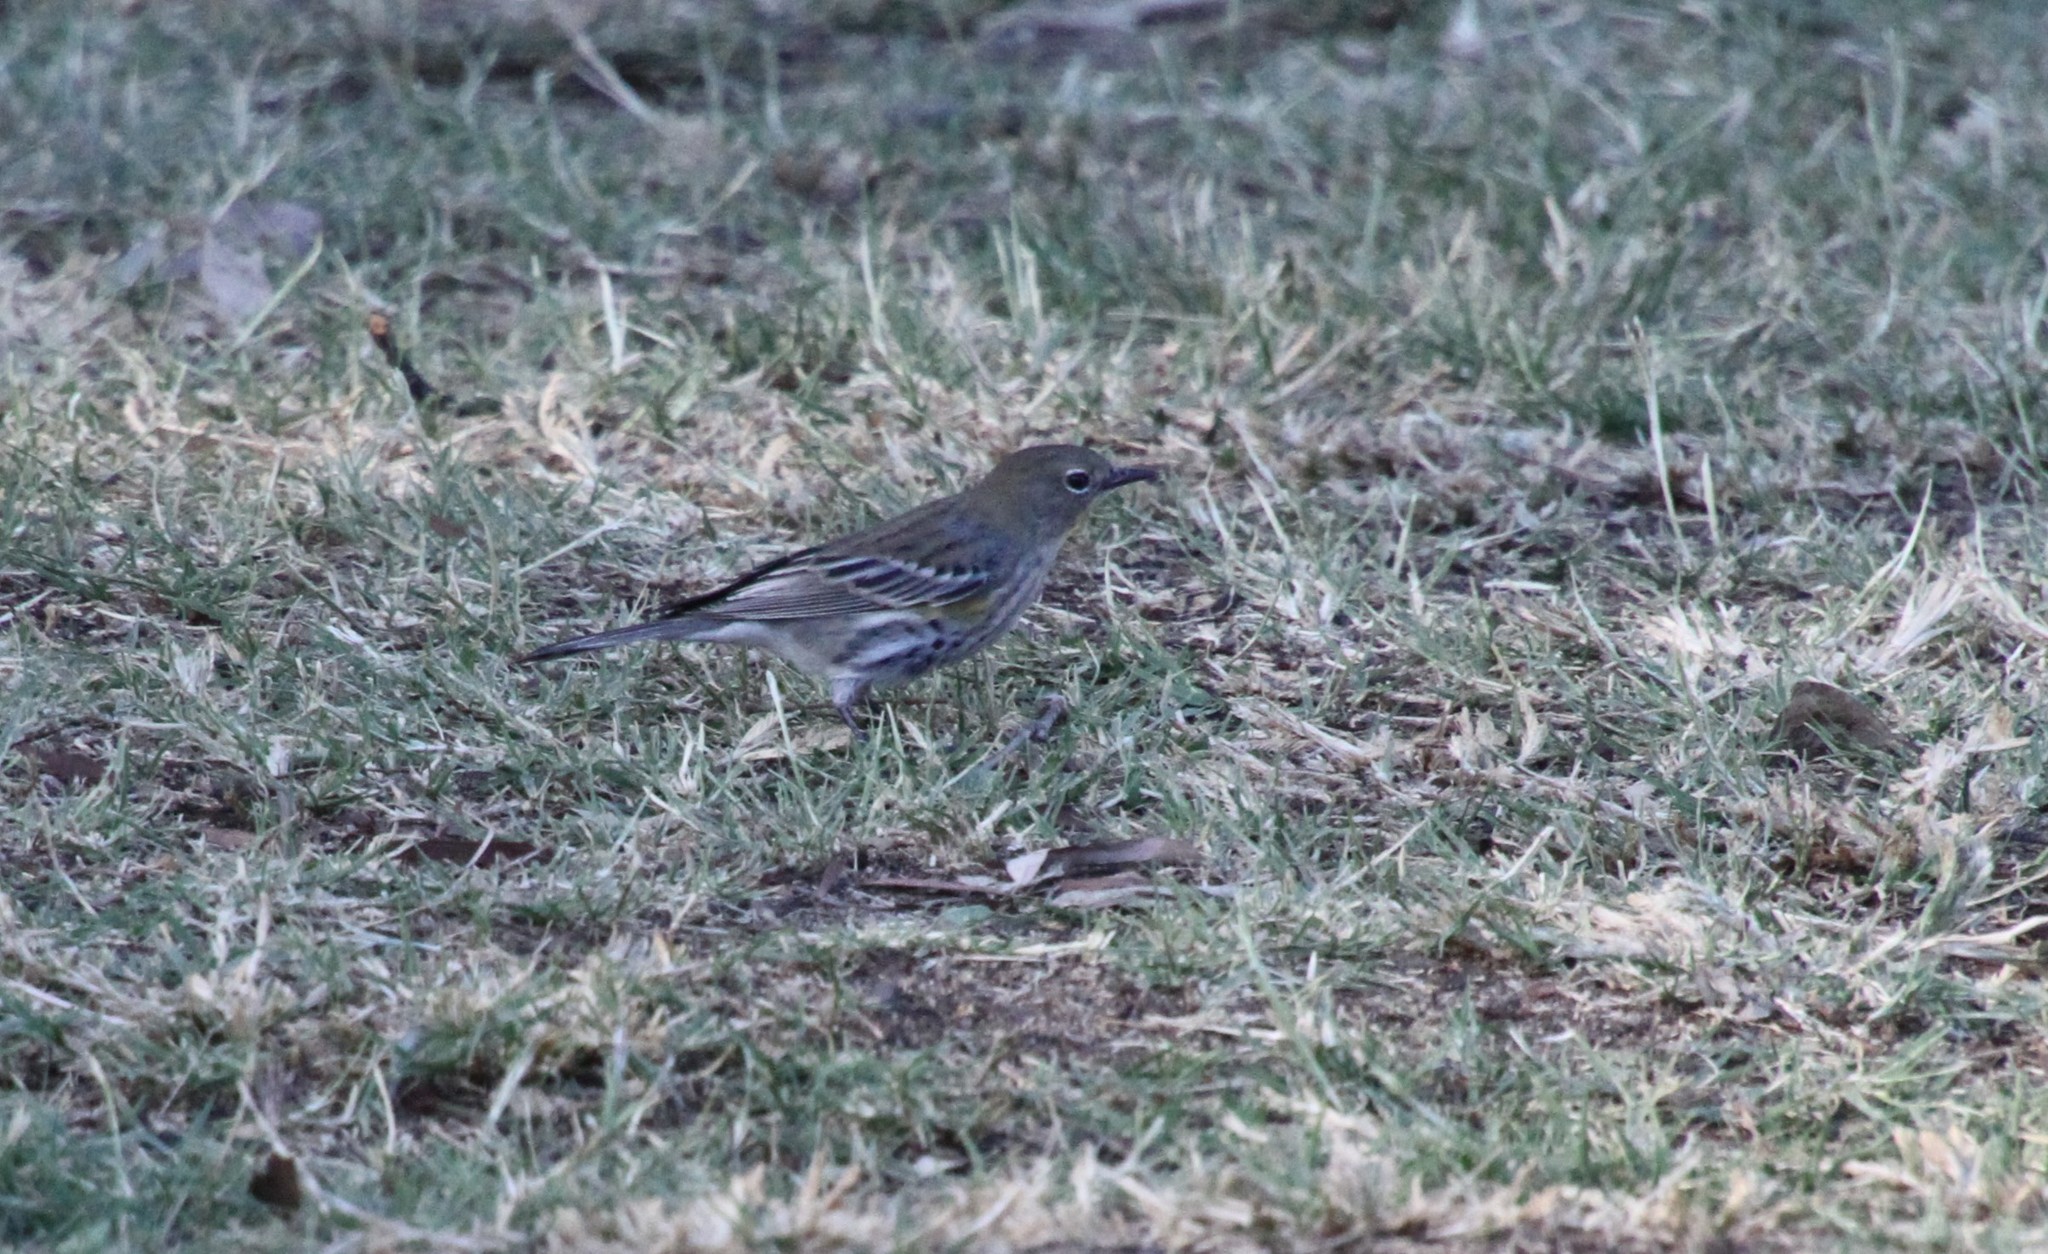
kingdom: Animalia
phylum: Chordata
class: Aves
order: Passeriformes
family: Parulidae
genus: Setophaga
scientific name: Setophaga auduboni
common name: Audubon's warbler
